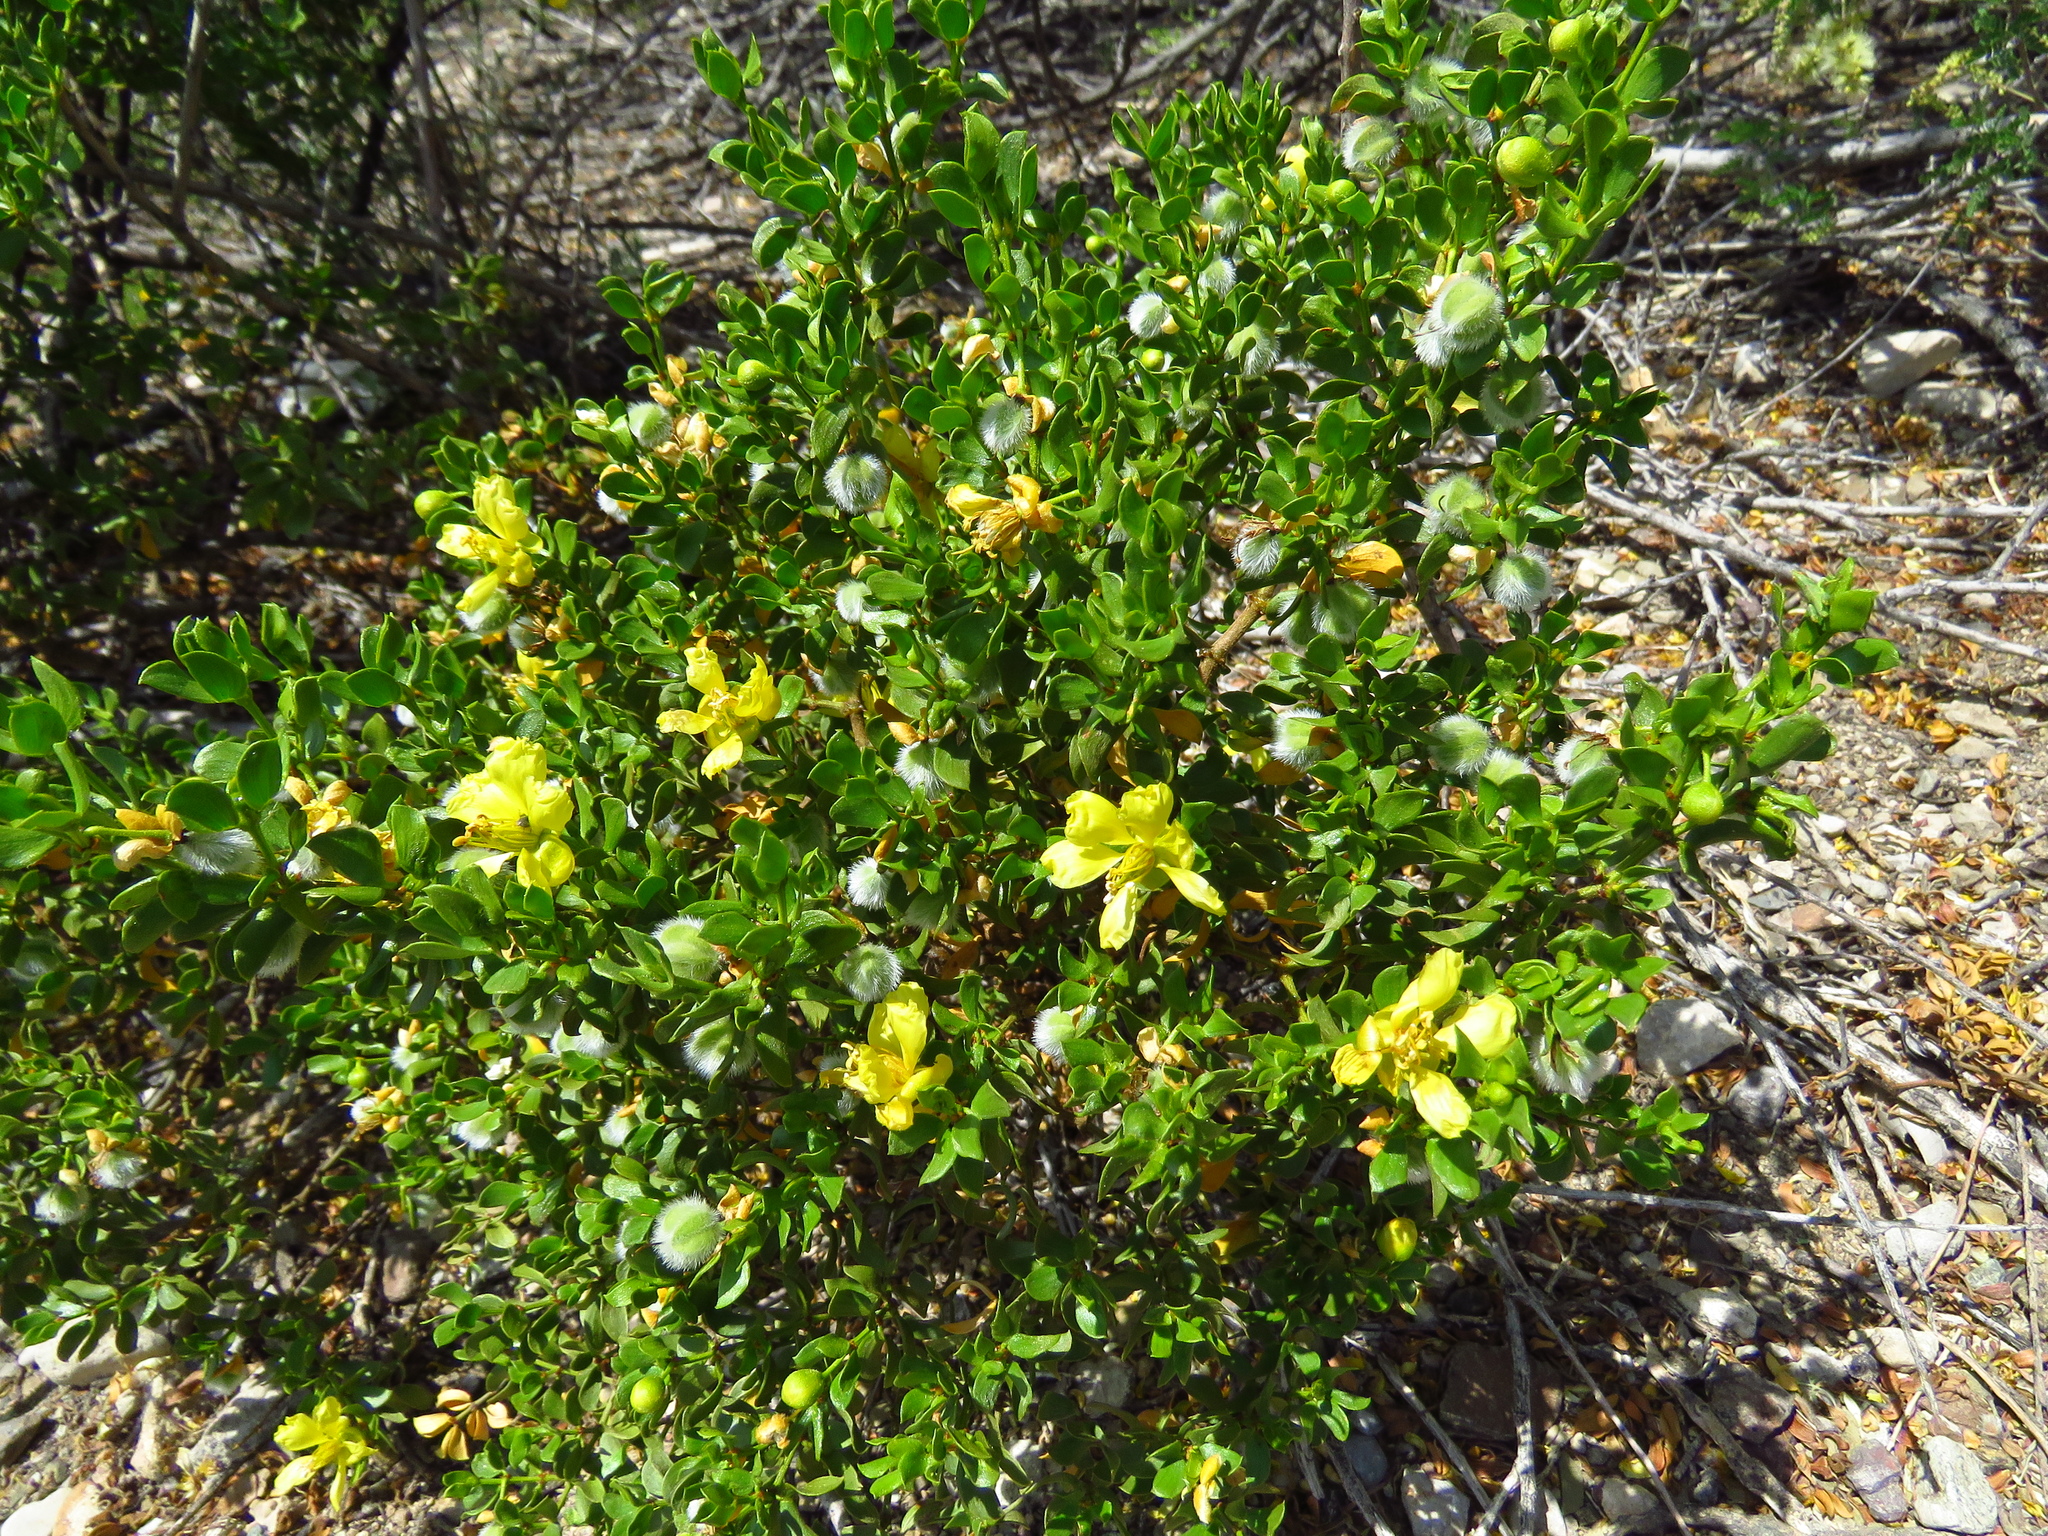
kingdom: Plantae
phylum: Tracheophyta
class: Magnoliopsida
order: Zygophyllales
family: Zygophyllaceae
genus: Larrea
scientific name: Larrea tridentata
